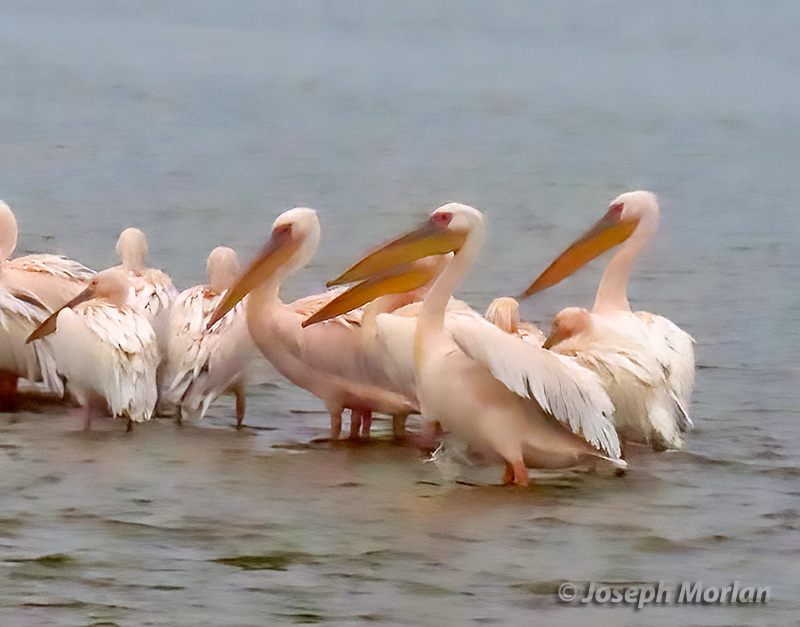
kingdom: Animalia
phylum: Chordata
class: Aves
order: Pelecaniformes
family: Pelecanidae
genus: Pelecanus
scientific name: Pelecanus onocrotalus
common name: Great white pelican
